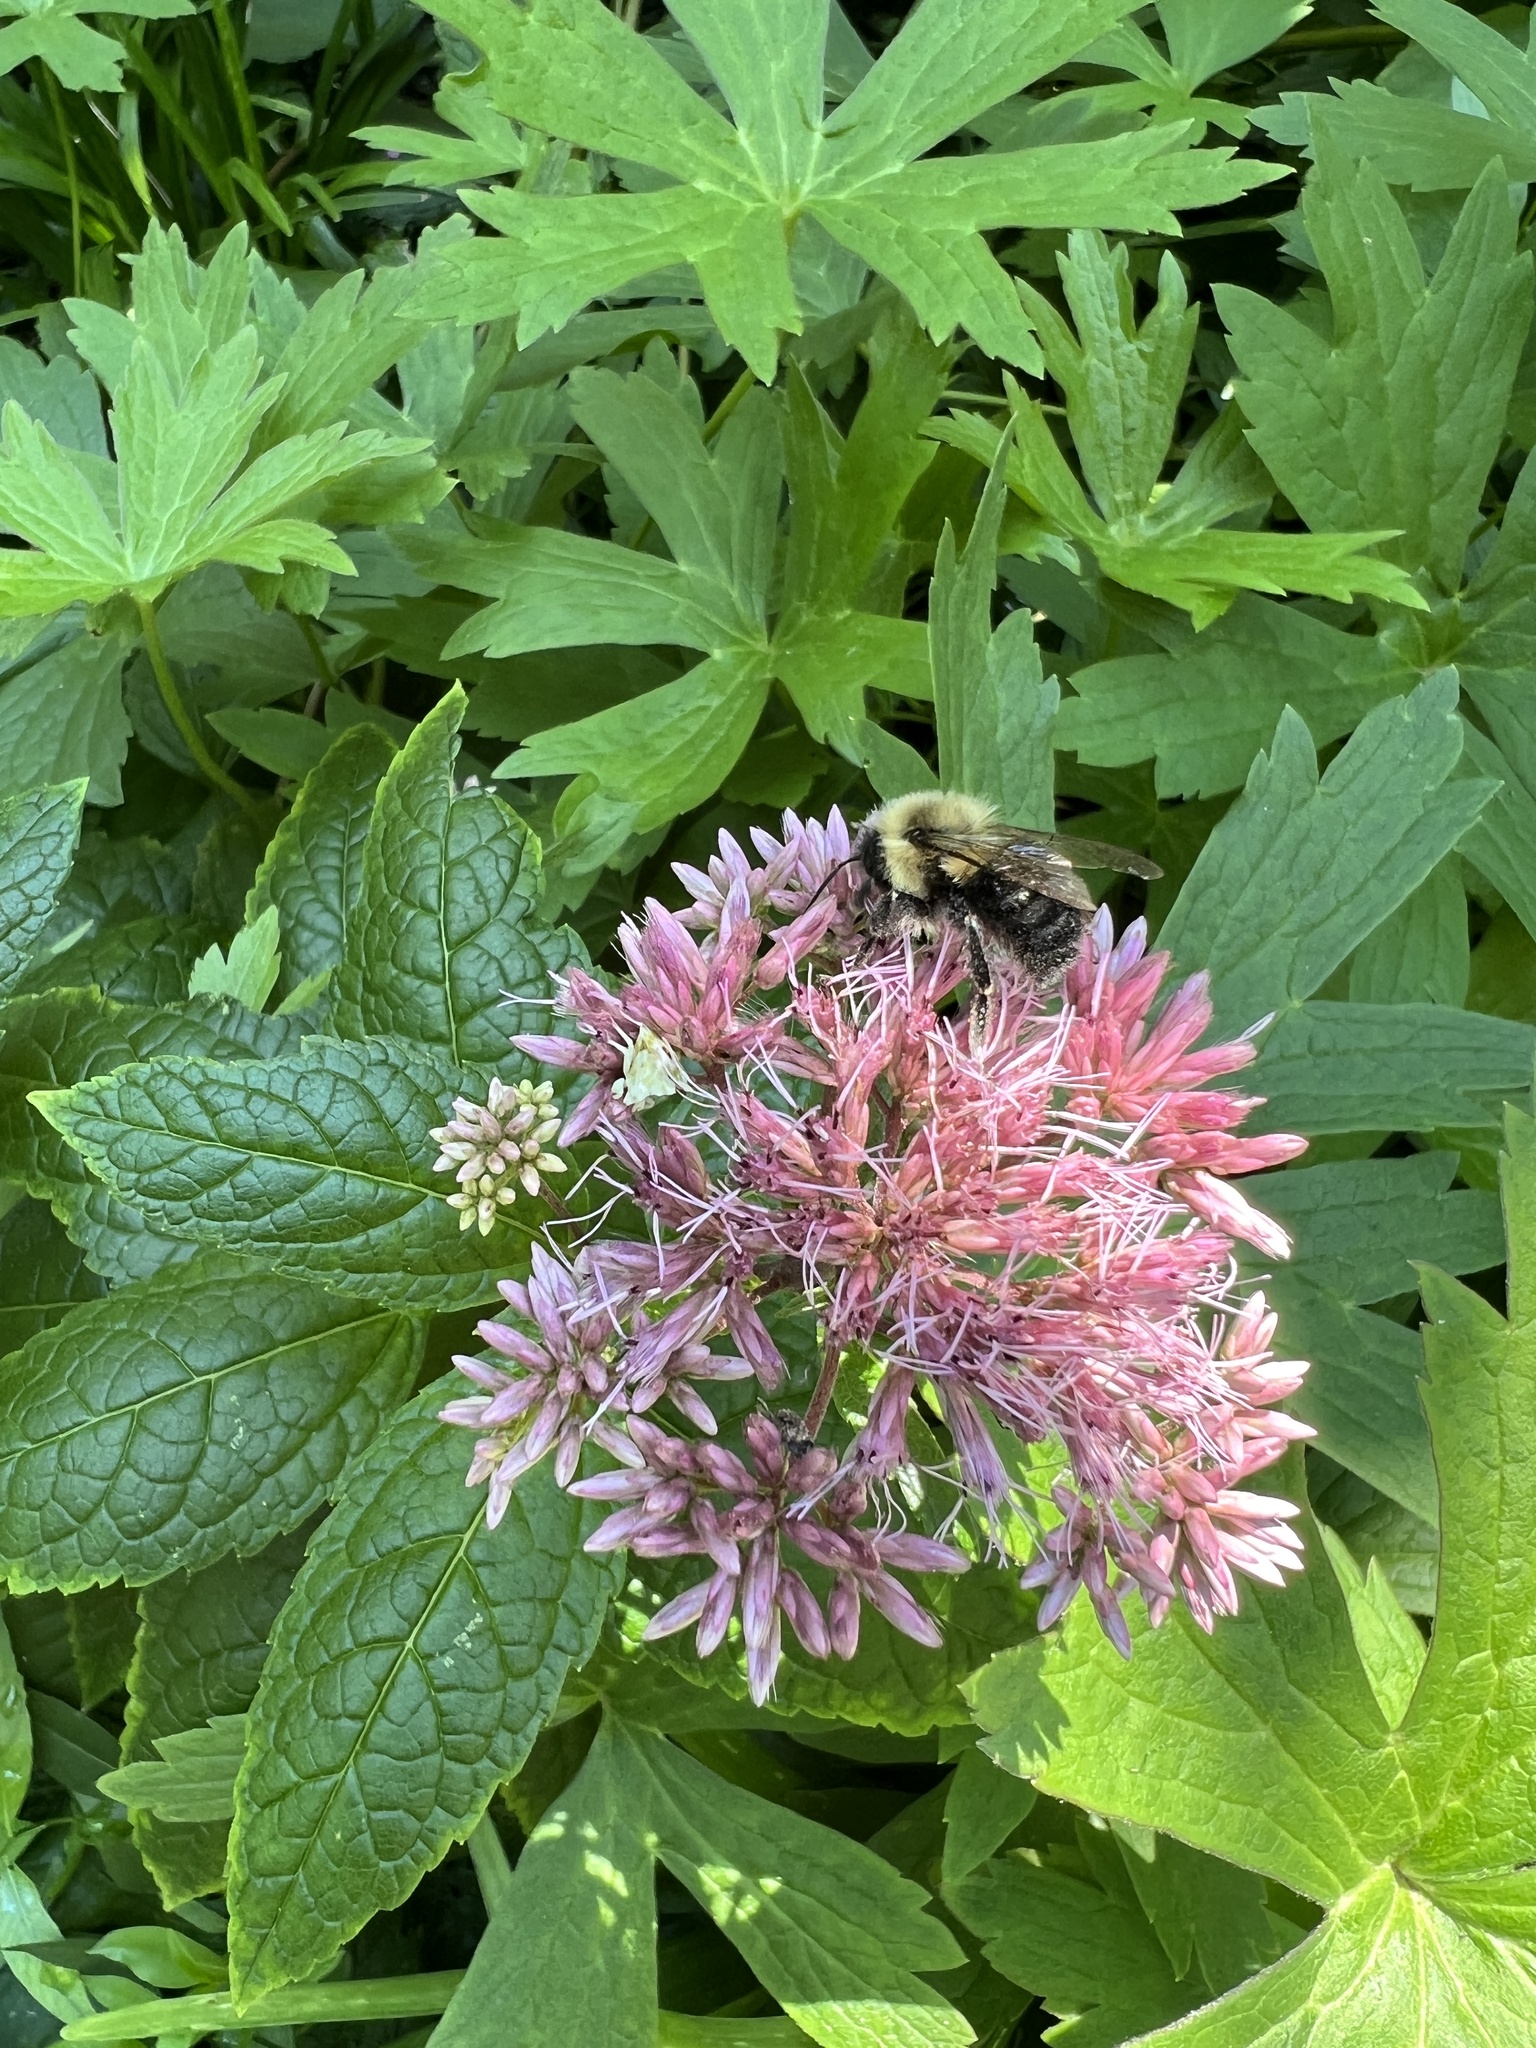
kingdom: Animalia
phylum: Arthropoda
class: Insecta
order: Hymenoptera
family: Apidae
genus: Bombus
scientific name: Bombus impatiens
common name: Common eastern bumble bee
